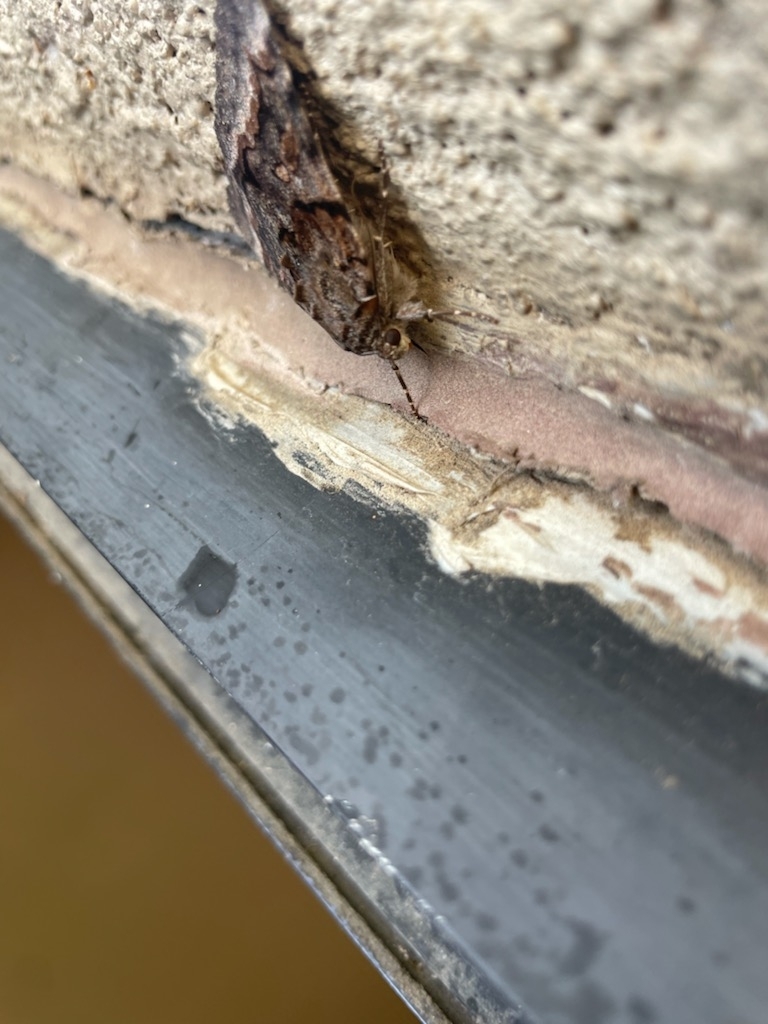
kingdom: Animalia
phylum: Arthropoda
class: Insecta
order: Lepidoptera
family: Erebidae
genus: Catocala
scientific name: Catocala epione
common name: Epione underwing
